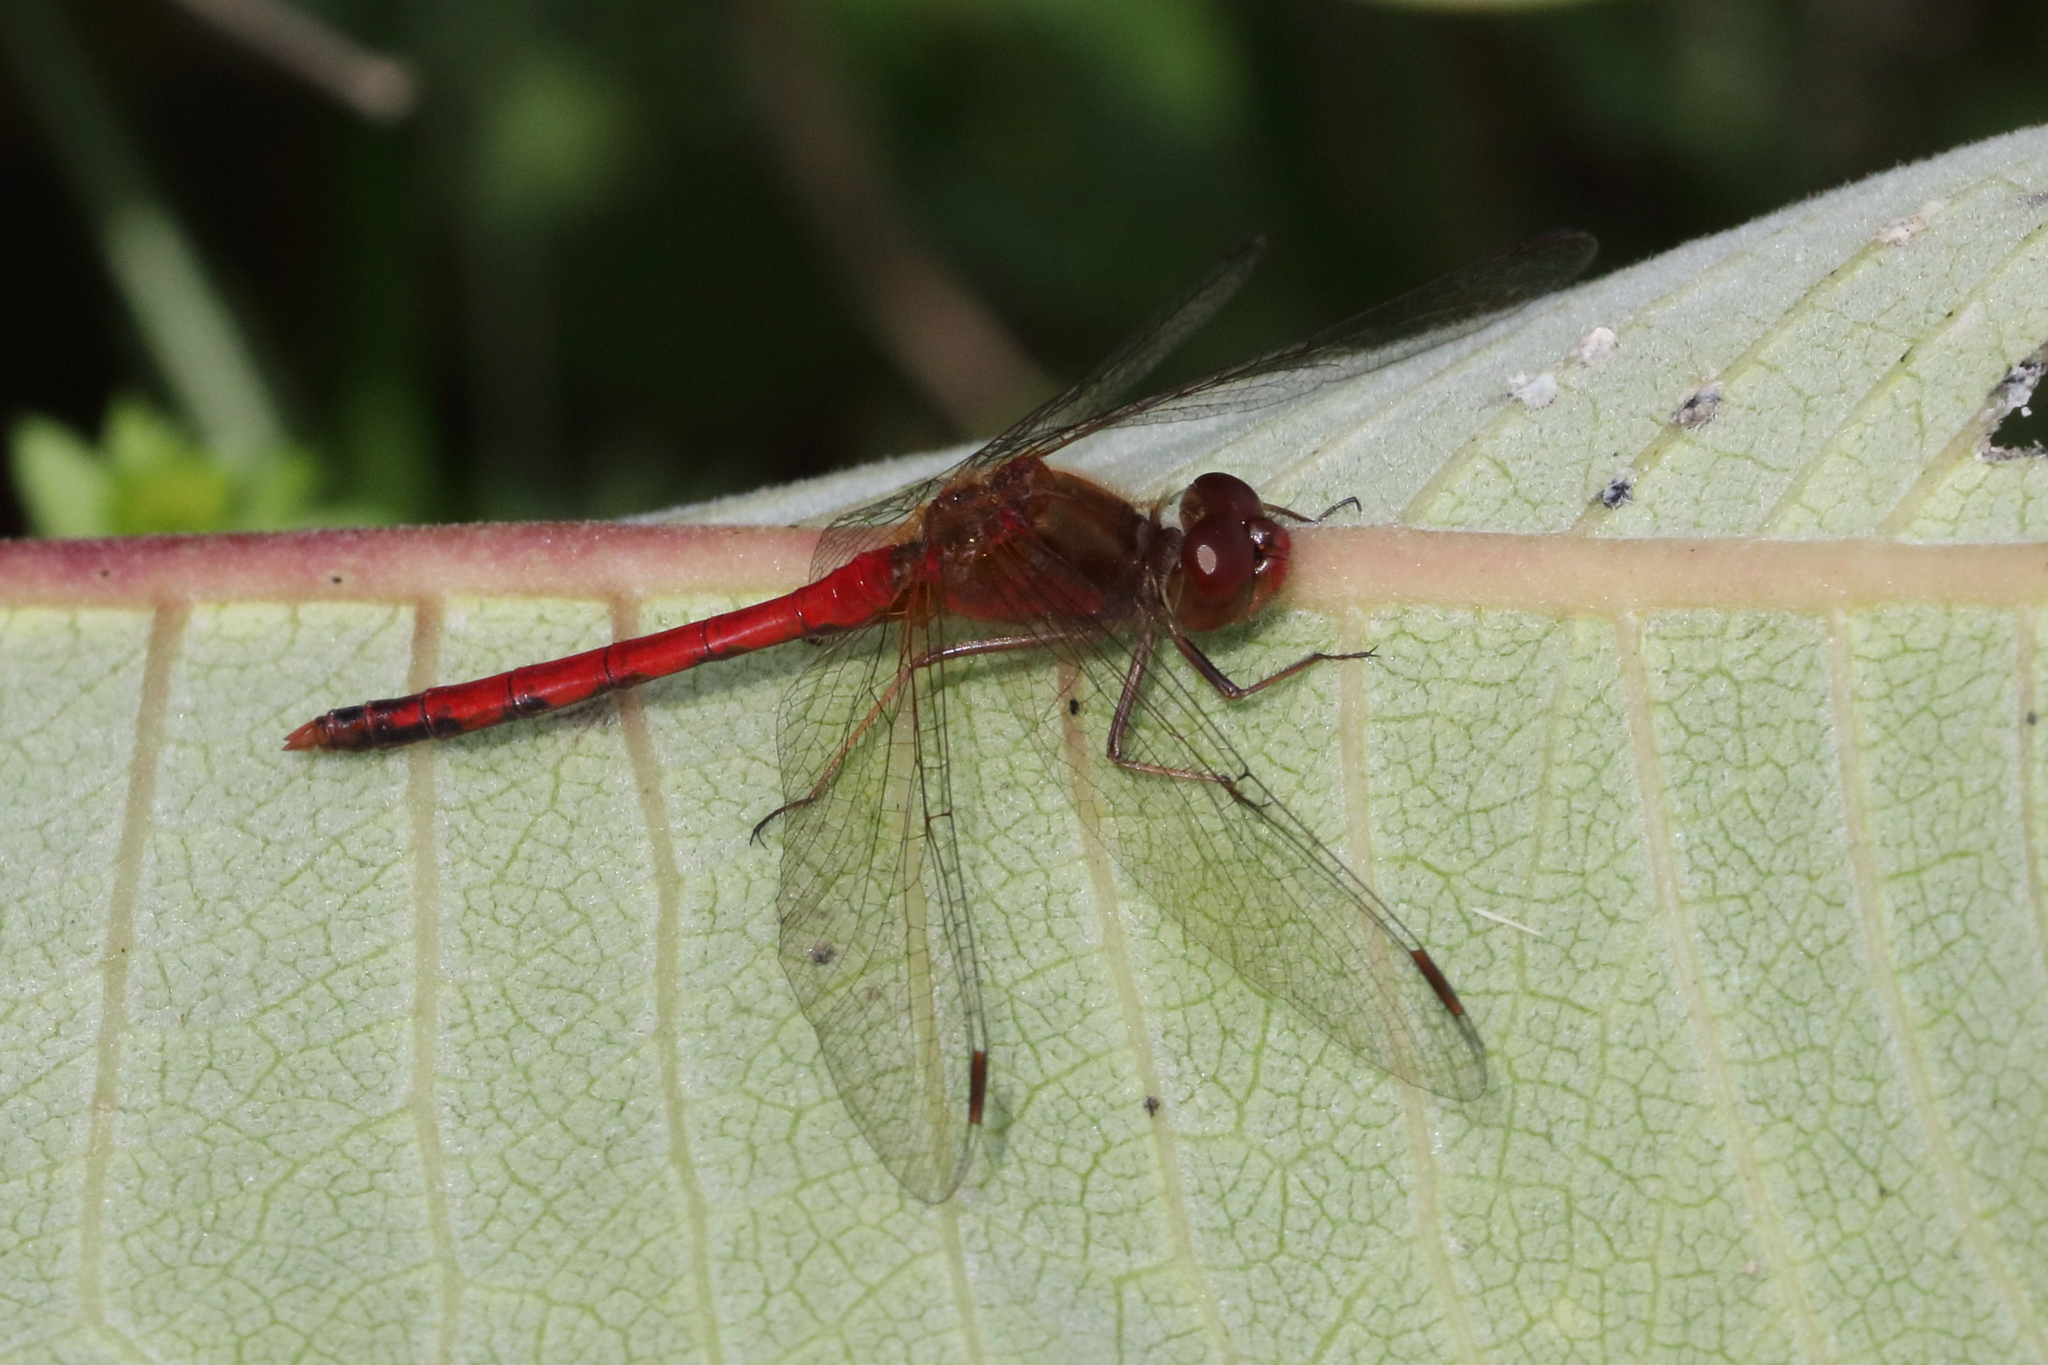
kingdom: Animalia
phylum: Arthropoda
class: Insecta
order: Odonata
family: Libellulidae
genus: Sympetrum
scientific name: Sympetrum vicinum
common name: Autumn meadowhawk
